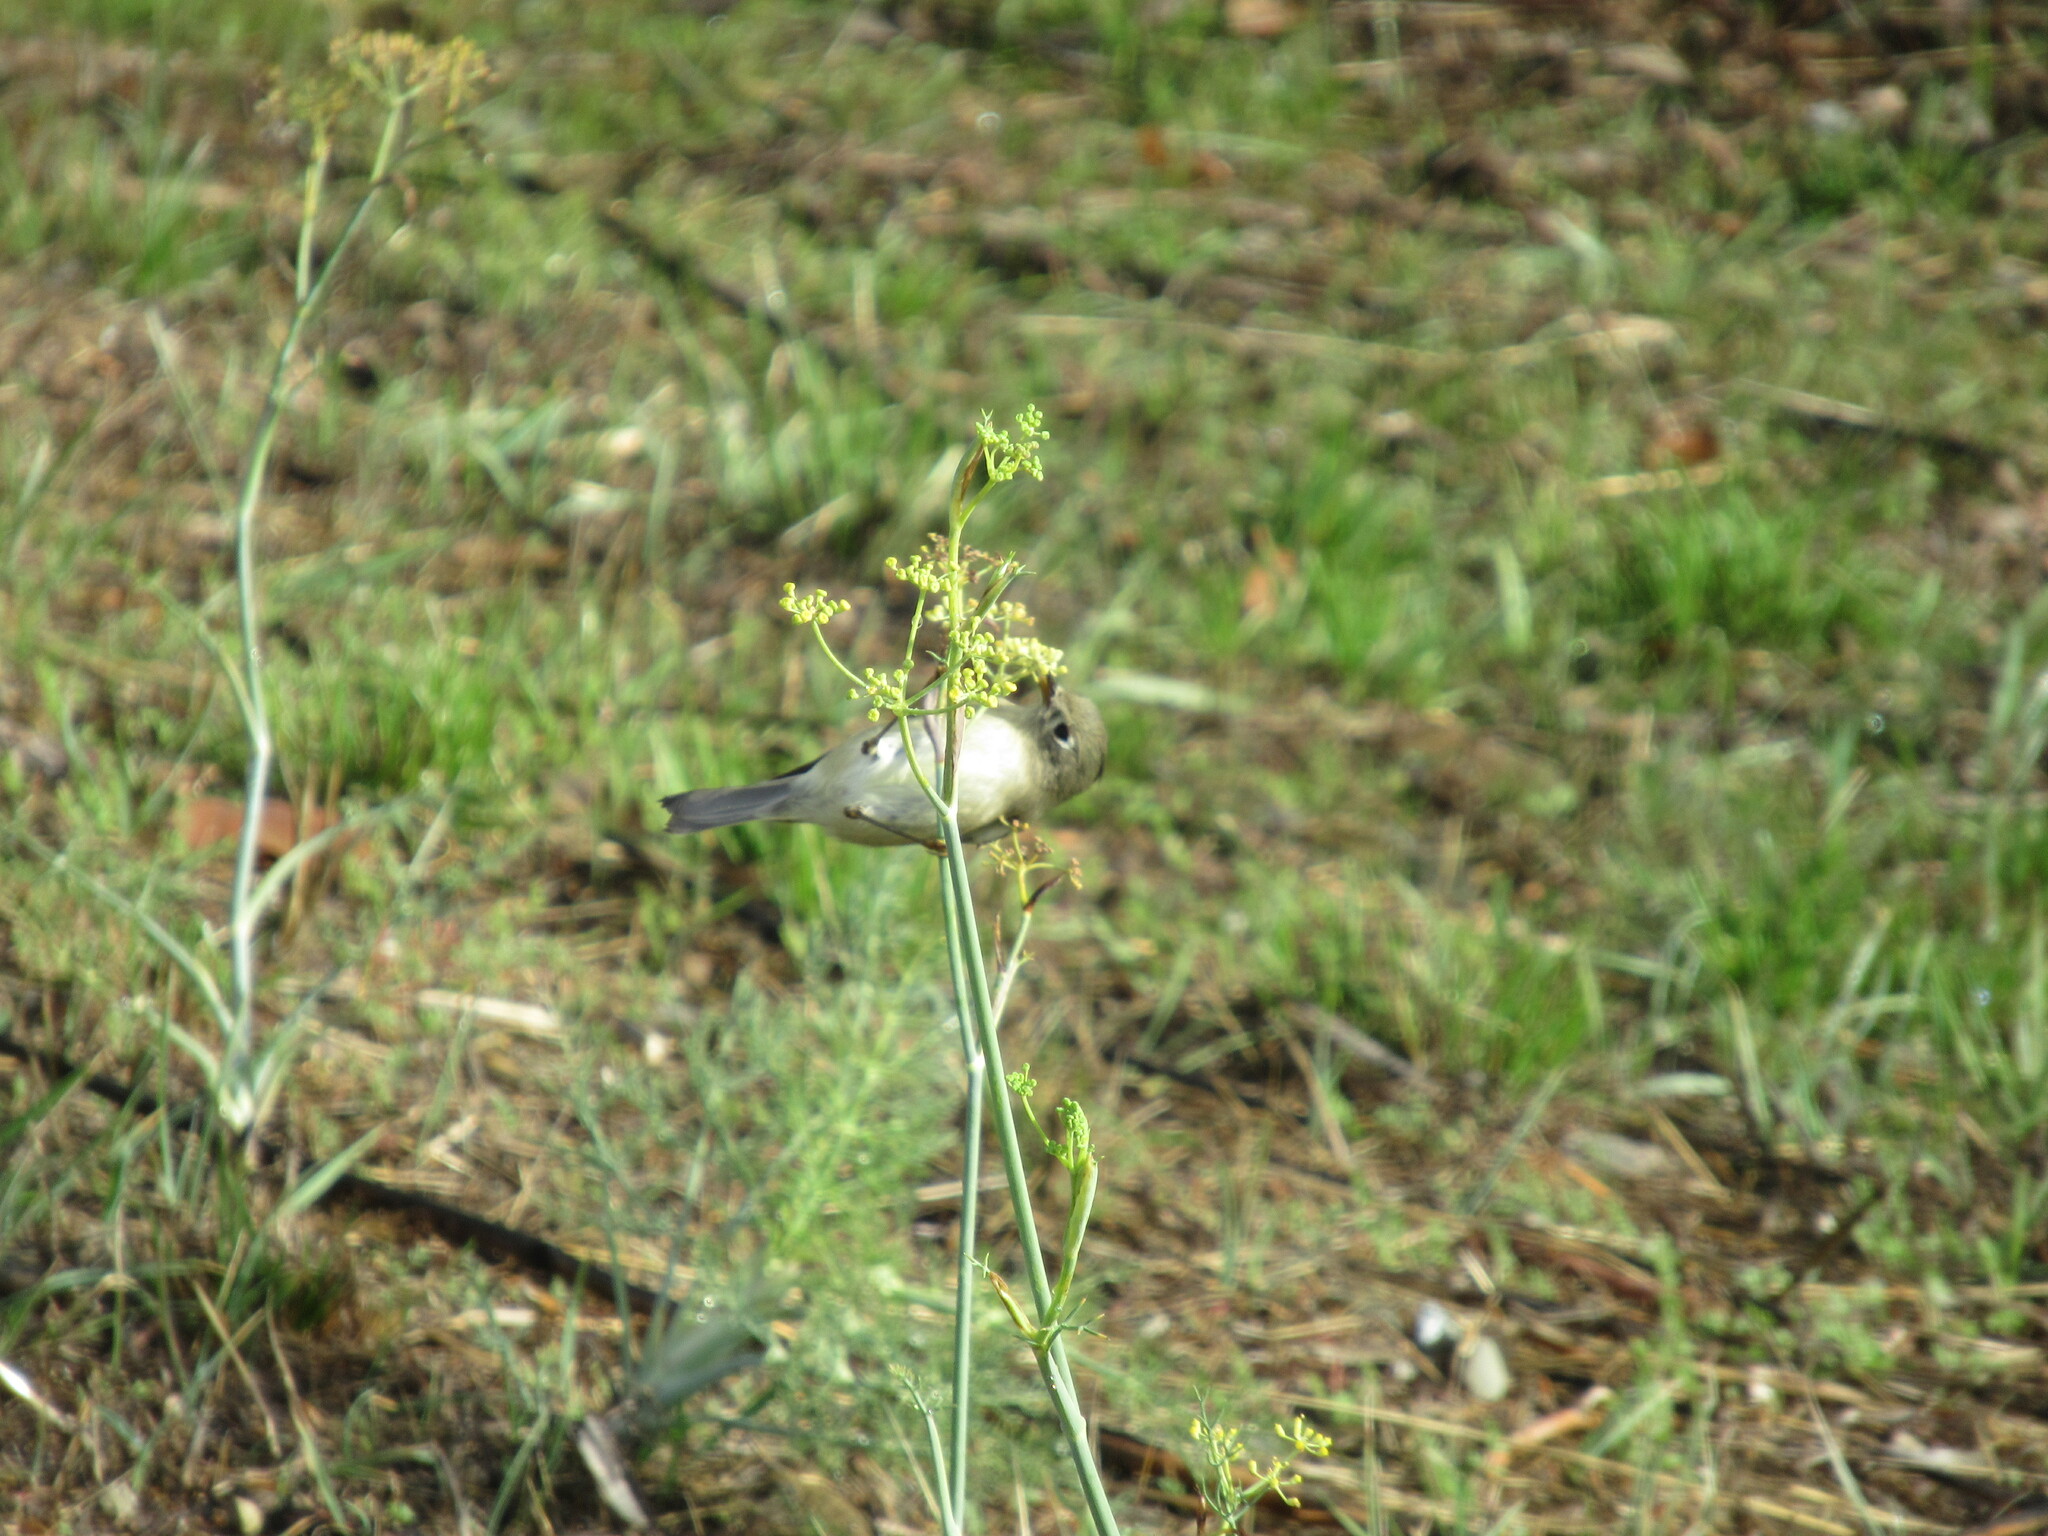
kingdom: Animalia
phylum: Chordata
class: Aves
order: Passeriformes
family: Regulidae
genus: Regulus
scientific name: Regulus calendula
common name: Ruby-crowned kinglet
